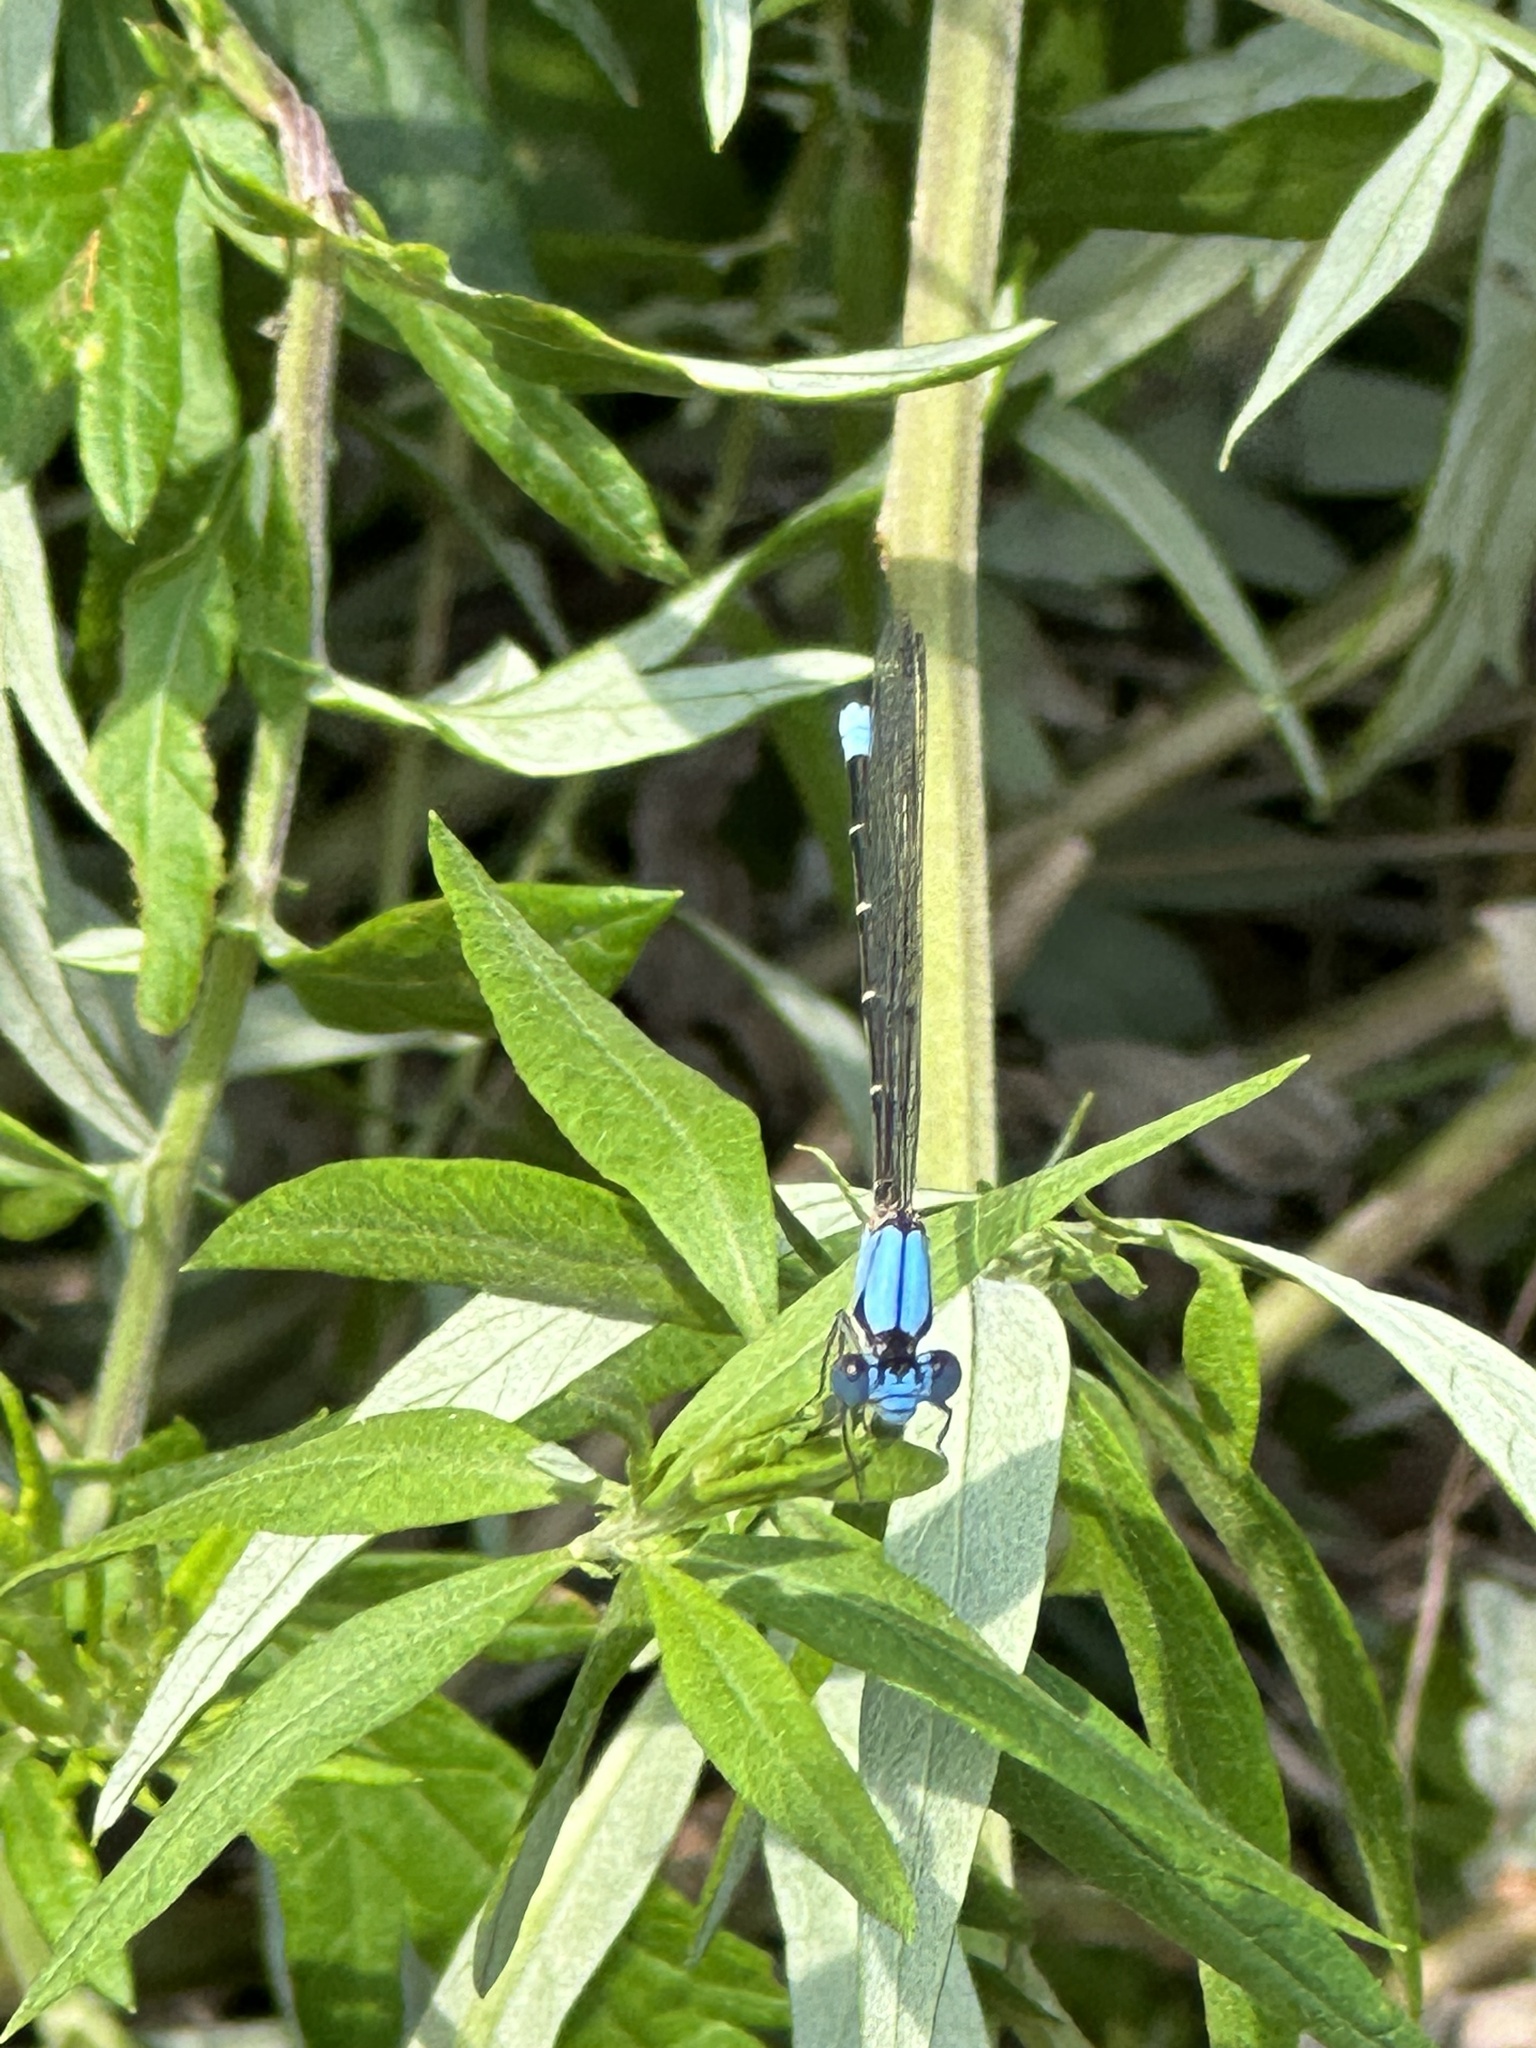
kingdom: Animalia
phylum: Arthropoda
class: Insecta
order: Odonata
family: Coenagrionidae
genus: Argia
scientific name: Argia apicalis
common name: Blue-fronted dancer
